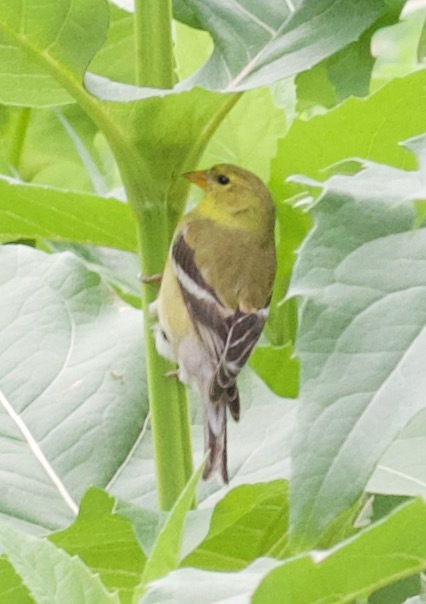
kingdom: Animalia
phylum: Chordata
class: Aves
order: Passeriformes
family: Fringillidae
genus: Spinus
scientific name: Spinus tristis
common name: American goldfinch
